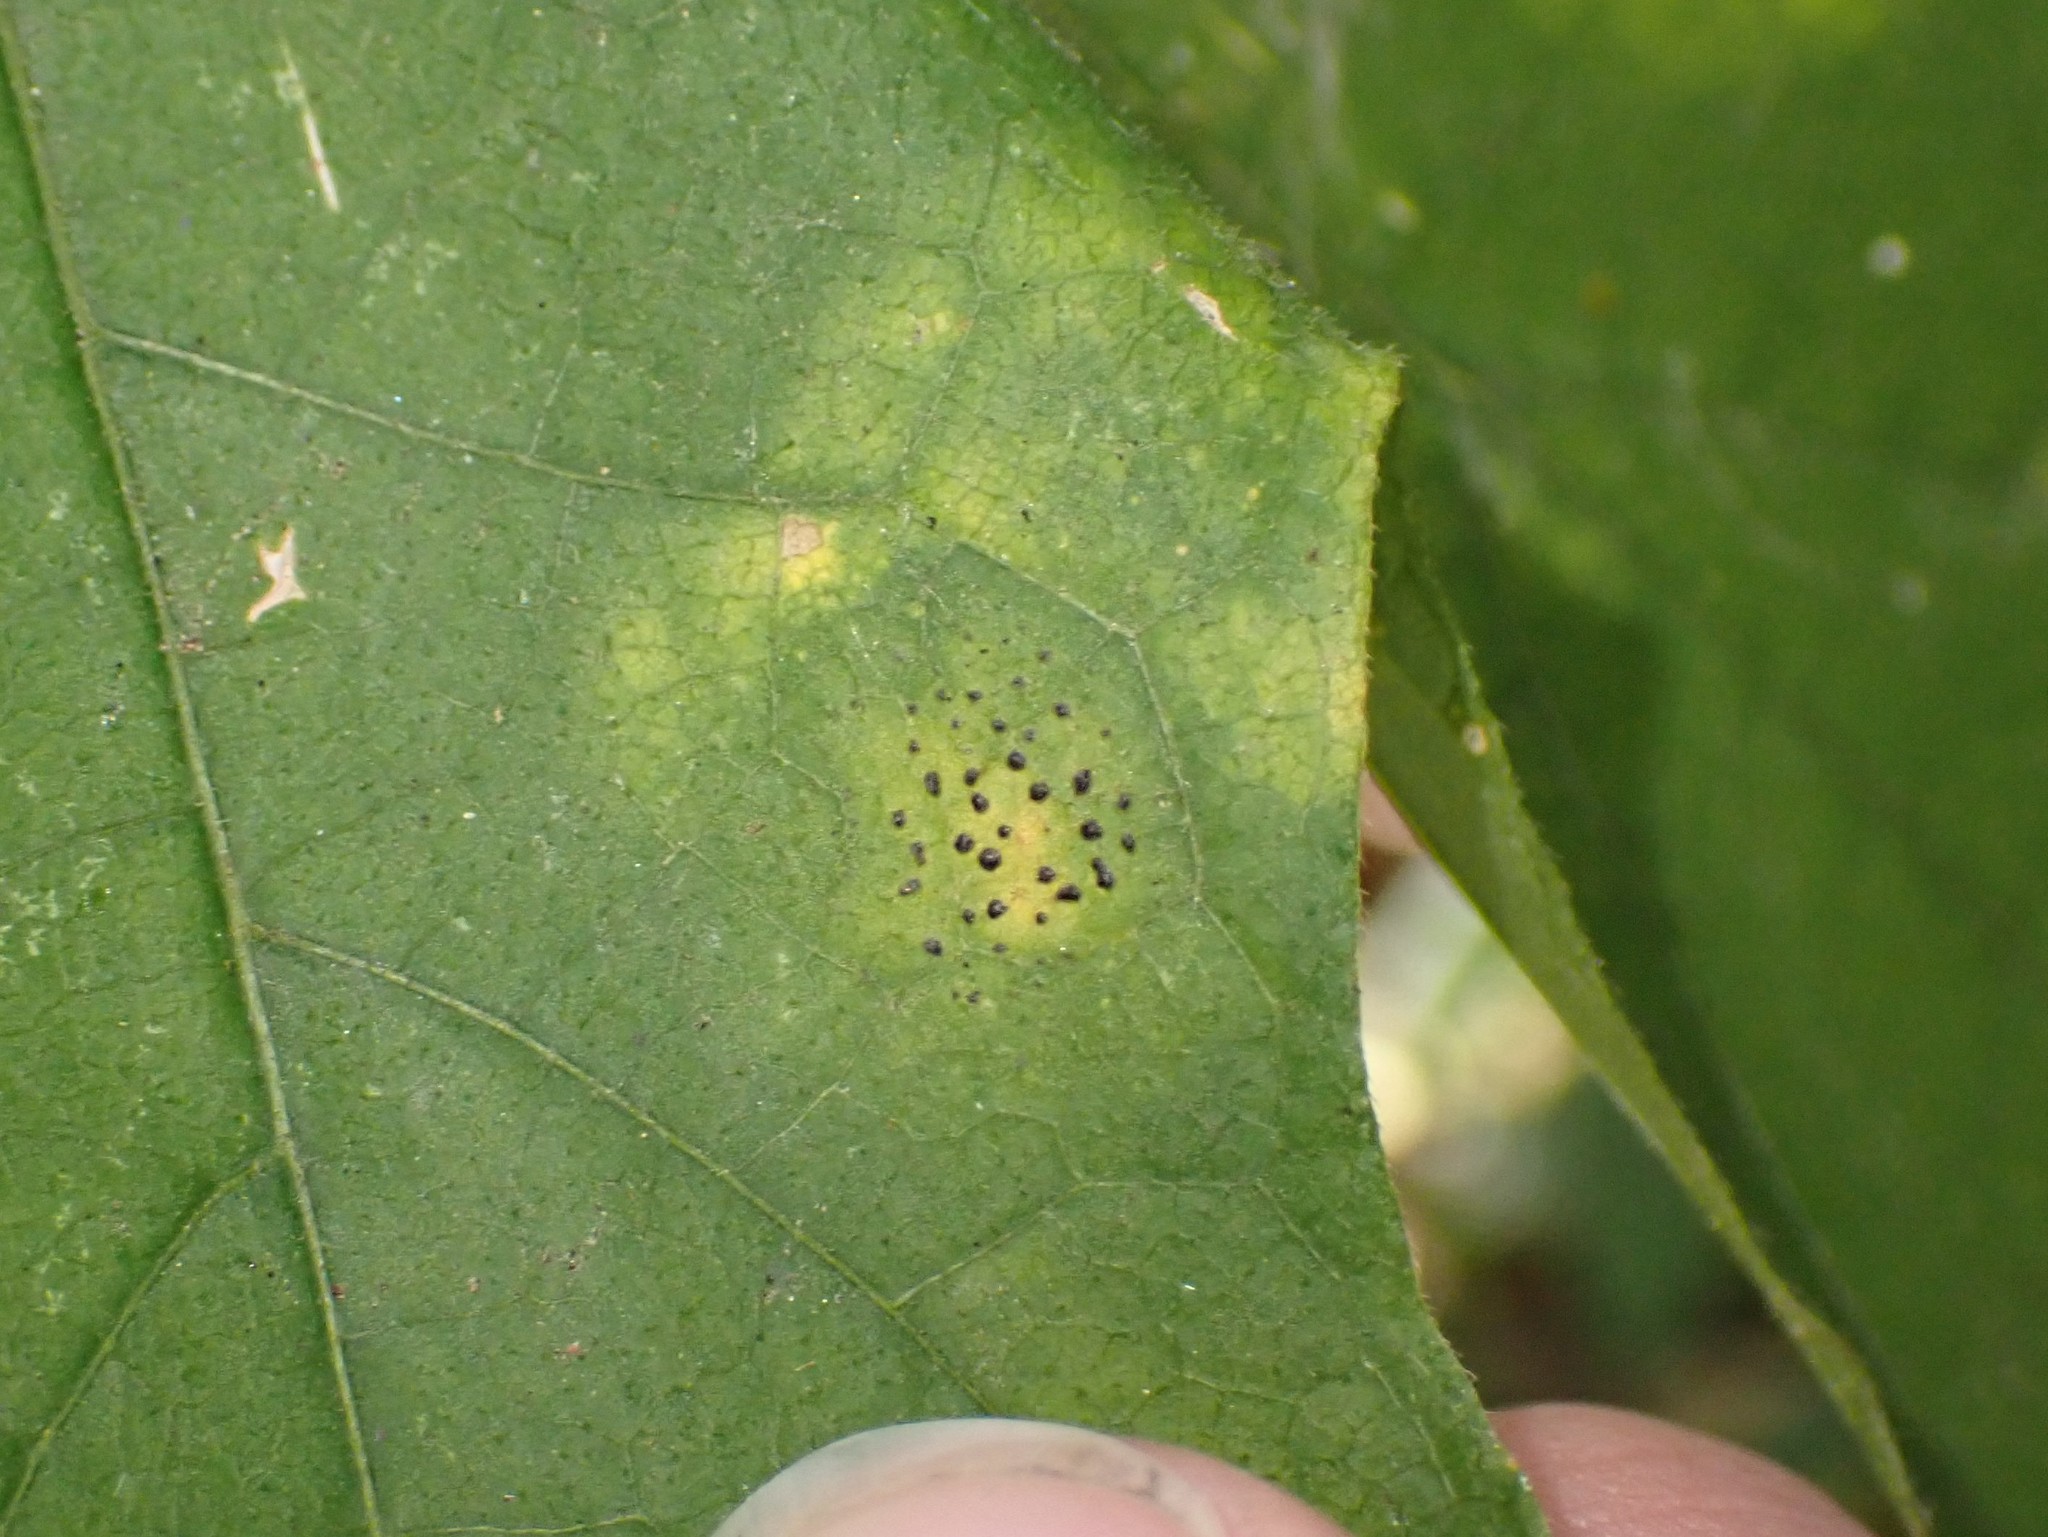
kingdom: Fungi
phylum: Ascomycota
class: Leotiomycetes
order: Rhytismatales
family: Rhytismataceae
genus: Rhytisma
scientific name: Rhytisma punctatum
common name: Speckled tar spot
